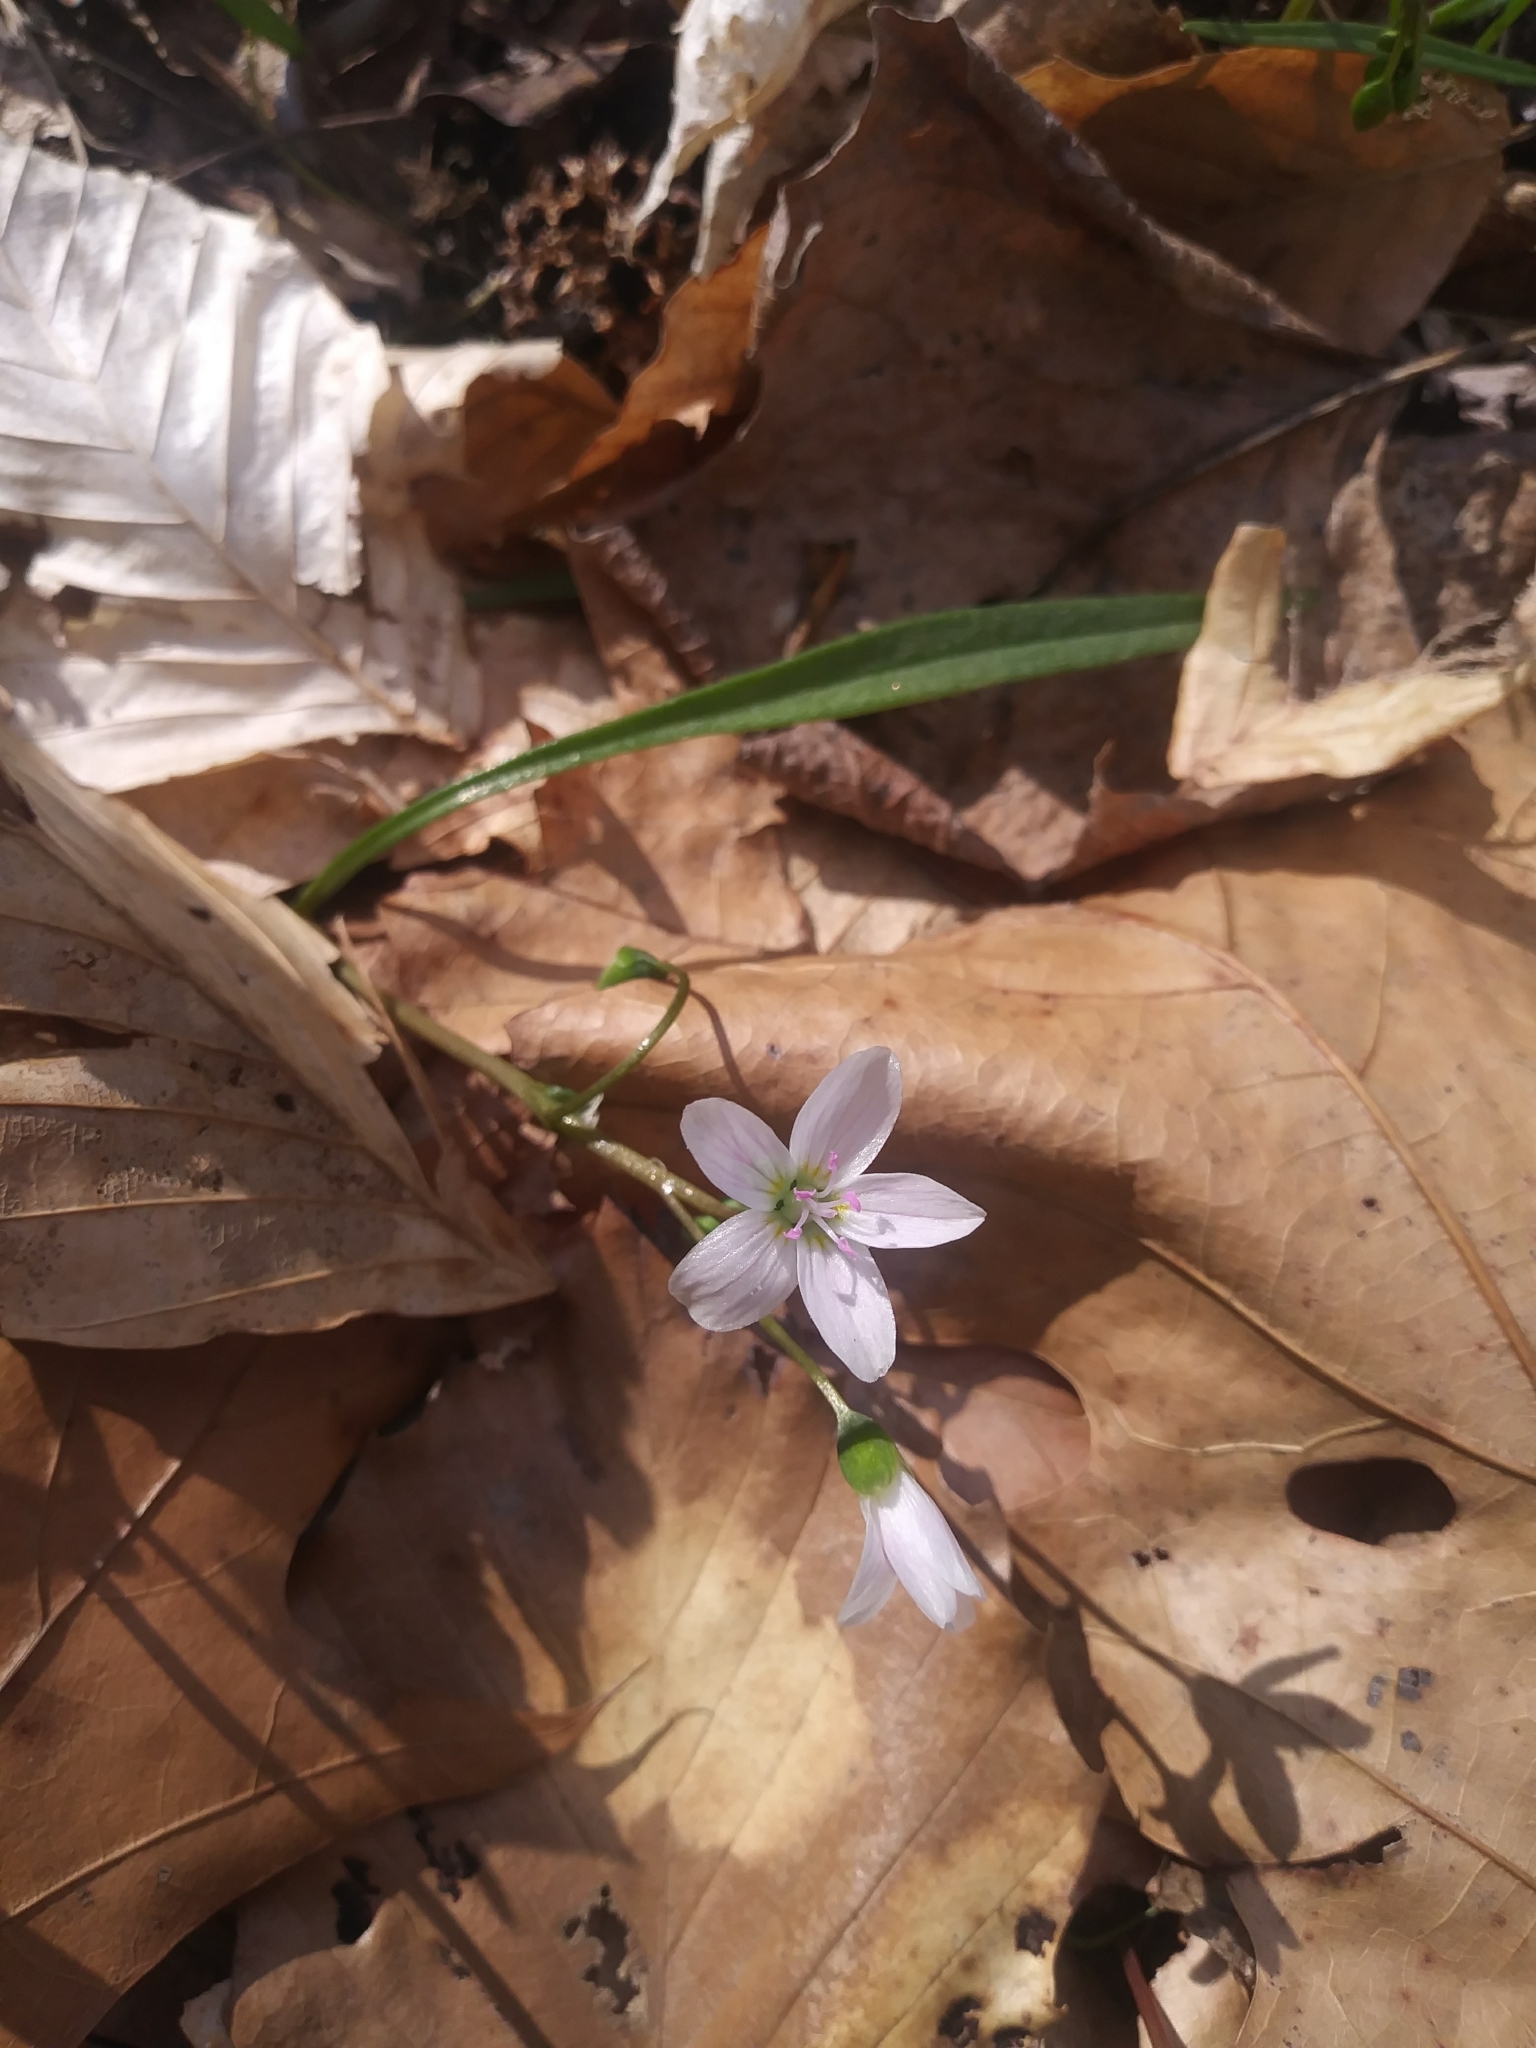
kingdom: Plantae
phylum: Tracheophyta
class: Magnoliopsida
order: Caryophyllales
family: Montiaceae
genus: Claytonia
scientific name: Claytonia virginica
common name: Virginia springbeauty
